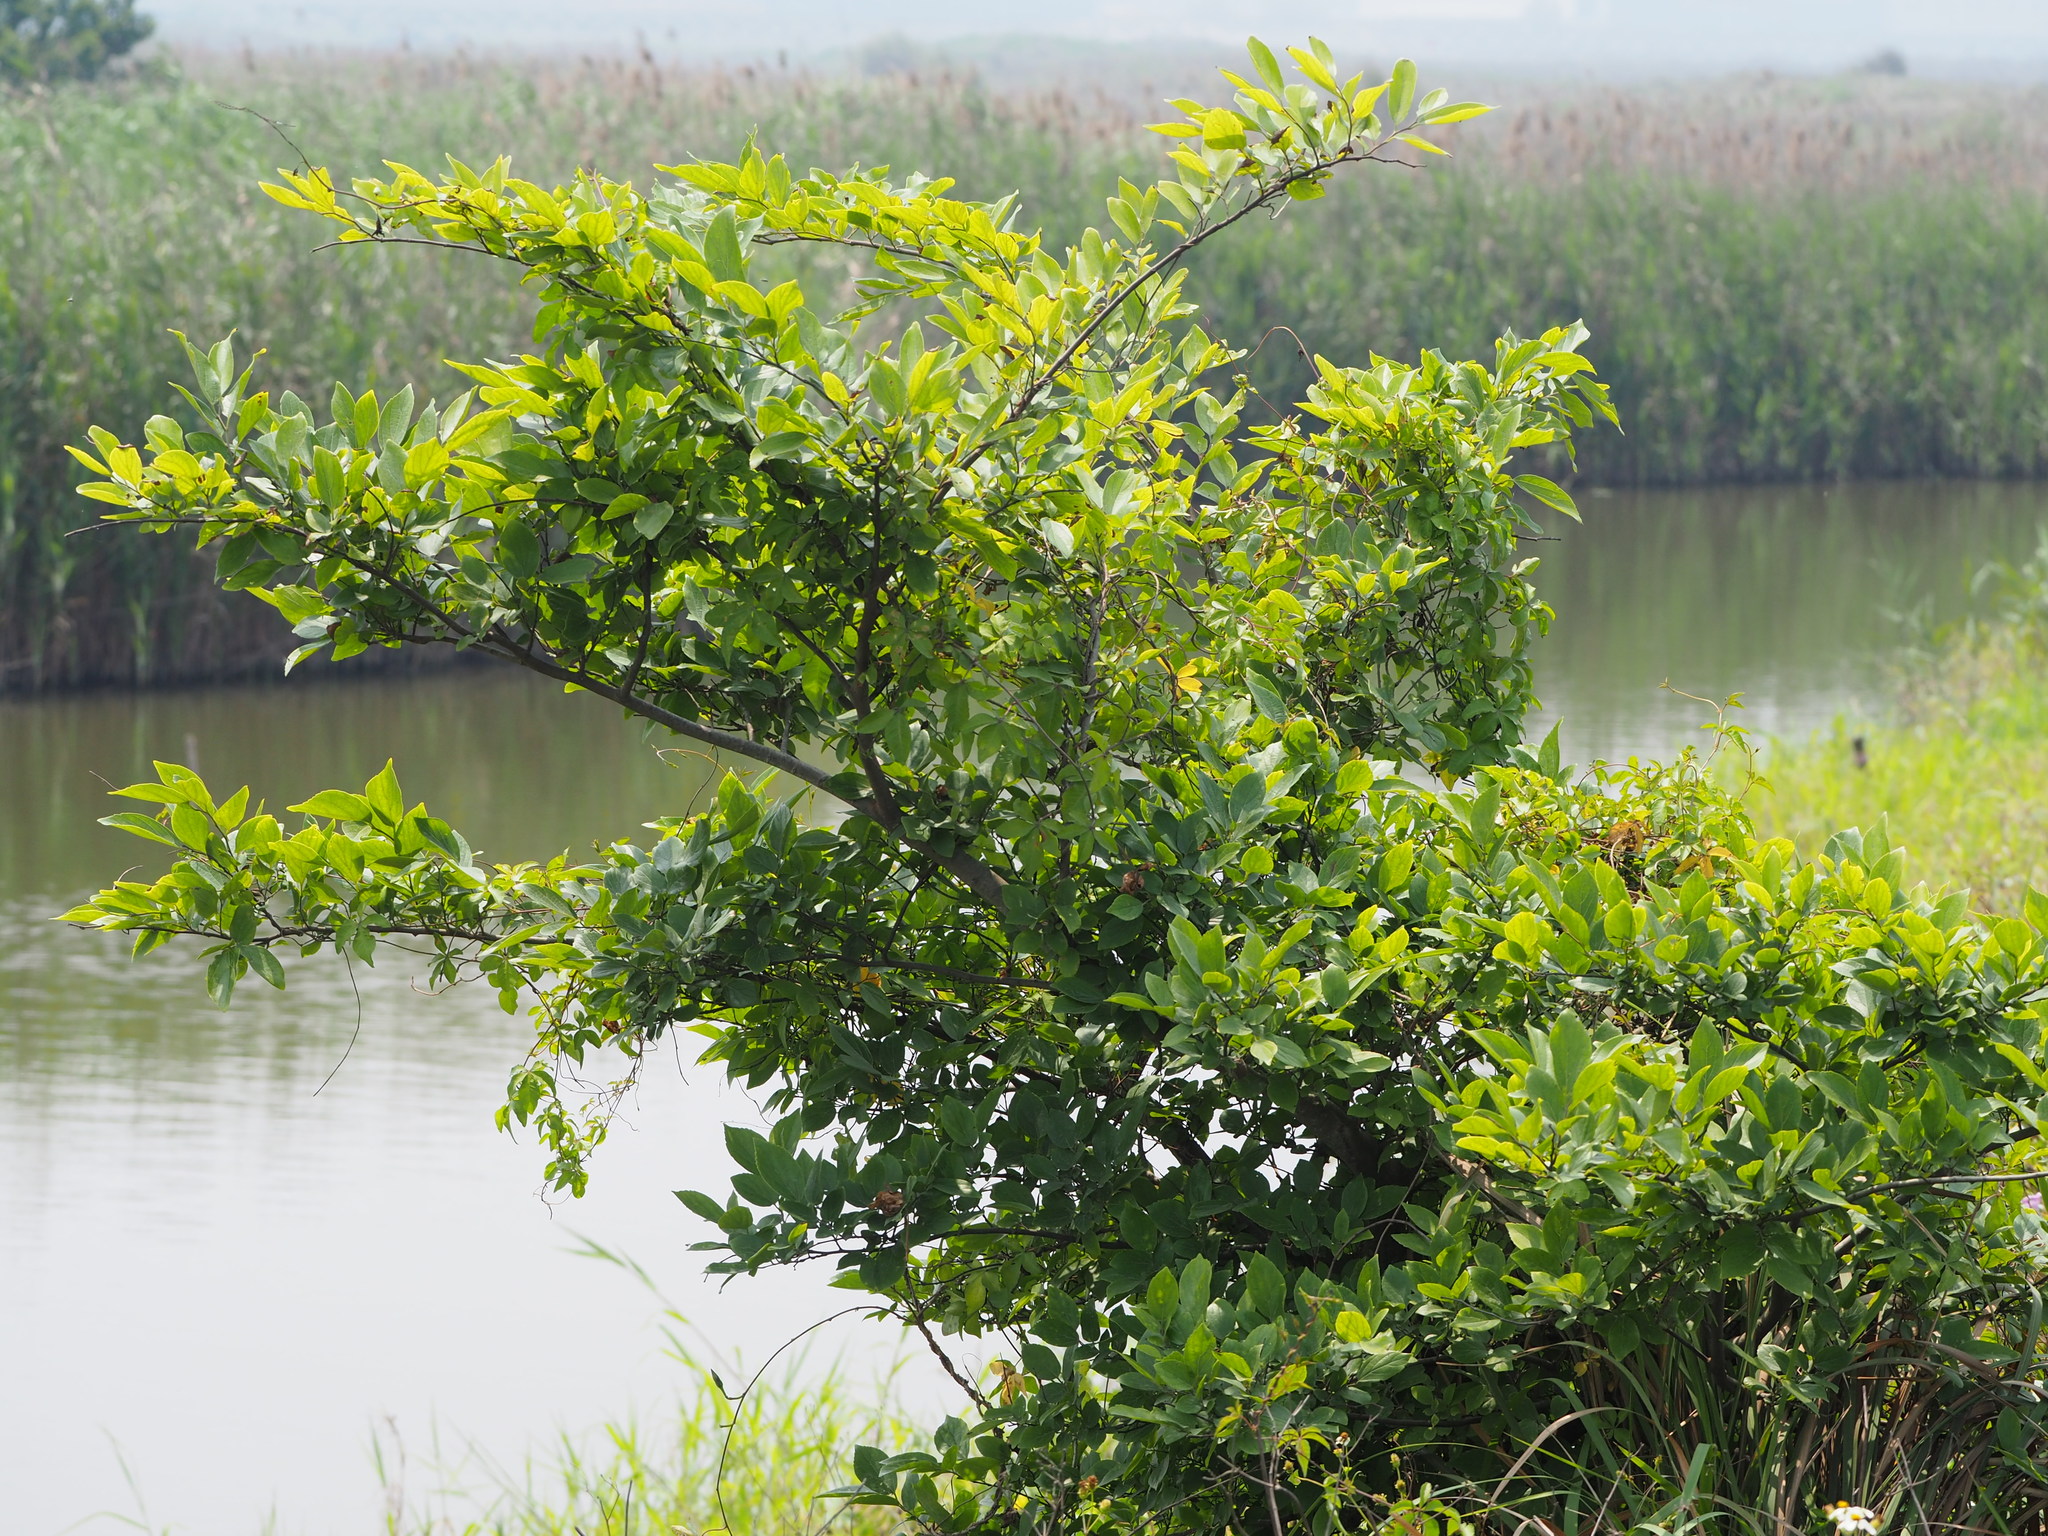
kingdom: Plantae
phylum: Tracheophyta
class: Magnoliopsida
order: Rosales
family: Cannabaceae
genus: Celtis
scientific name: Celtis sinensis
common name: Chinese hackberry
